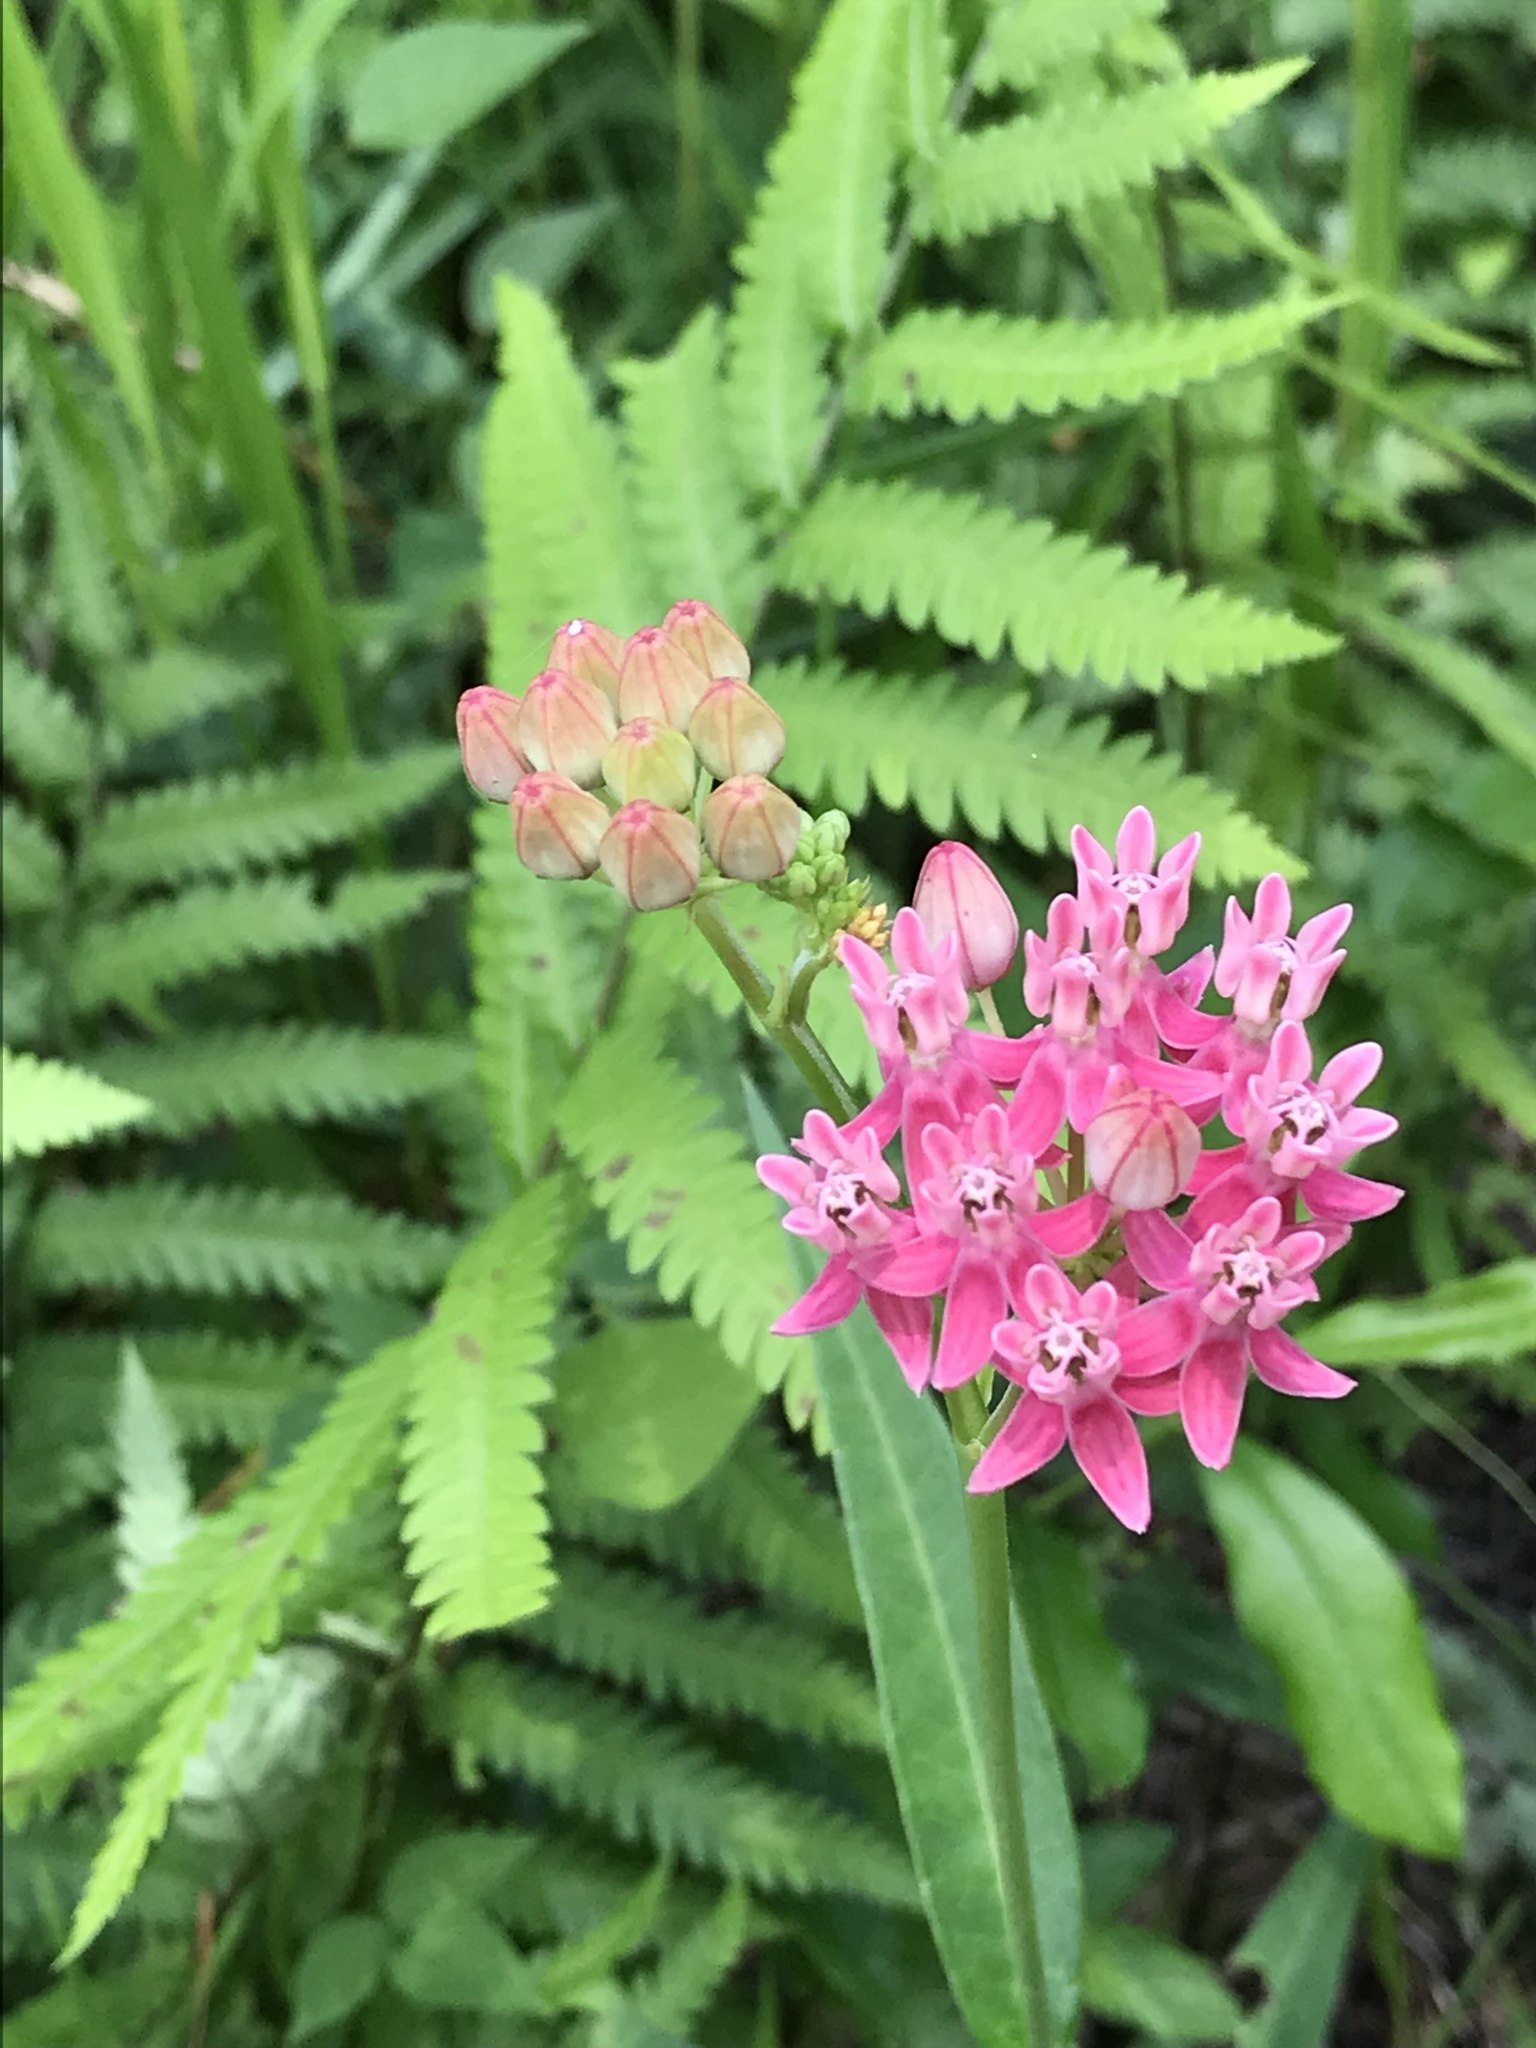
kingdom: Plantae
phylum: Tracheophyta
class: Magnoliopsida
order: Gentianales
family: Apocynaceae
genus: Asclepias
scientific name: Asclepias rubra
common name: Red milkweed
